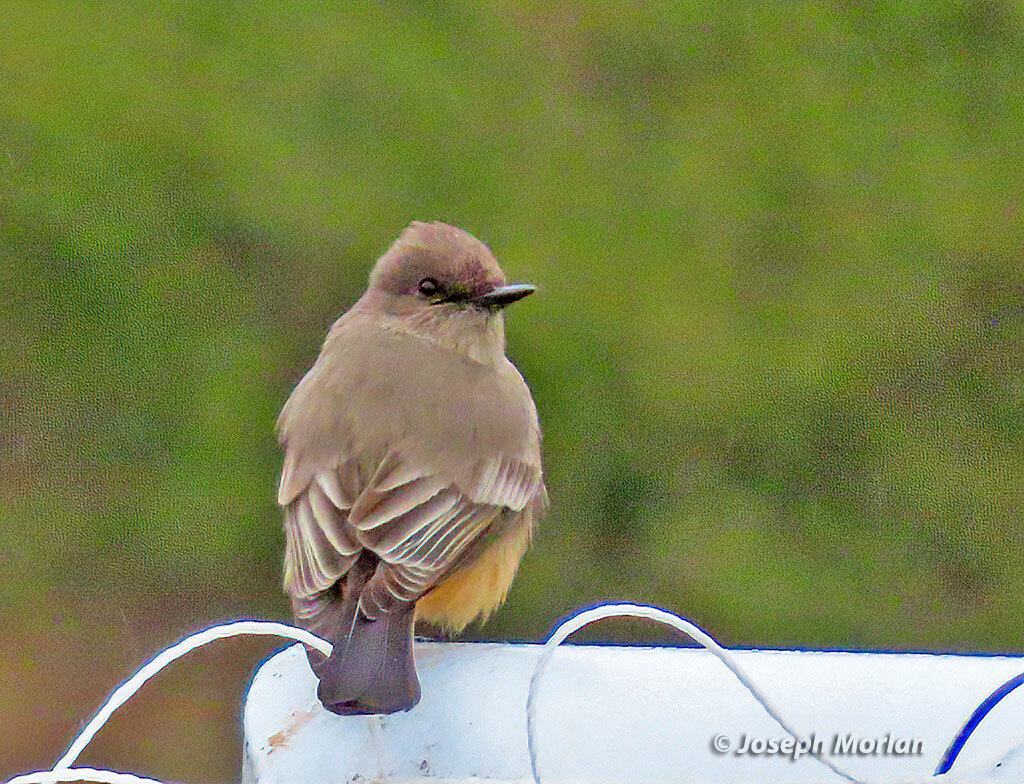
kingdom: Animalia
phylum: Chordata
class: Aves
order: Passeriformes
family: Tyrannidae
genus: Sayornis
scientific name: Sayornis saya
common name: Say's phoebe
